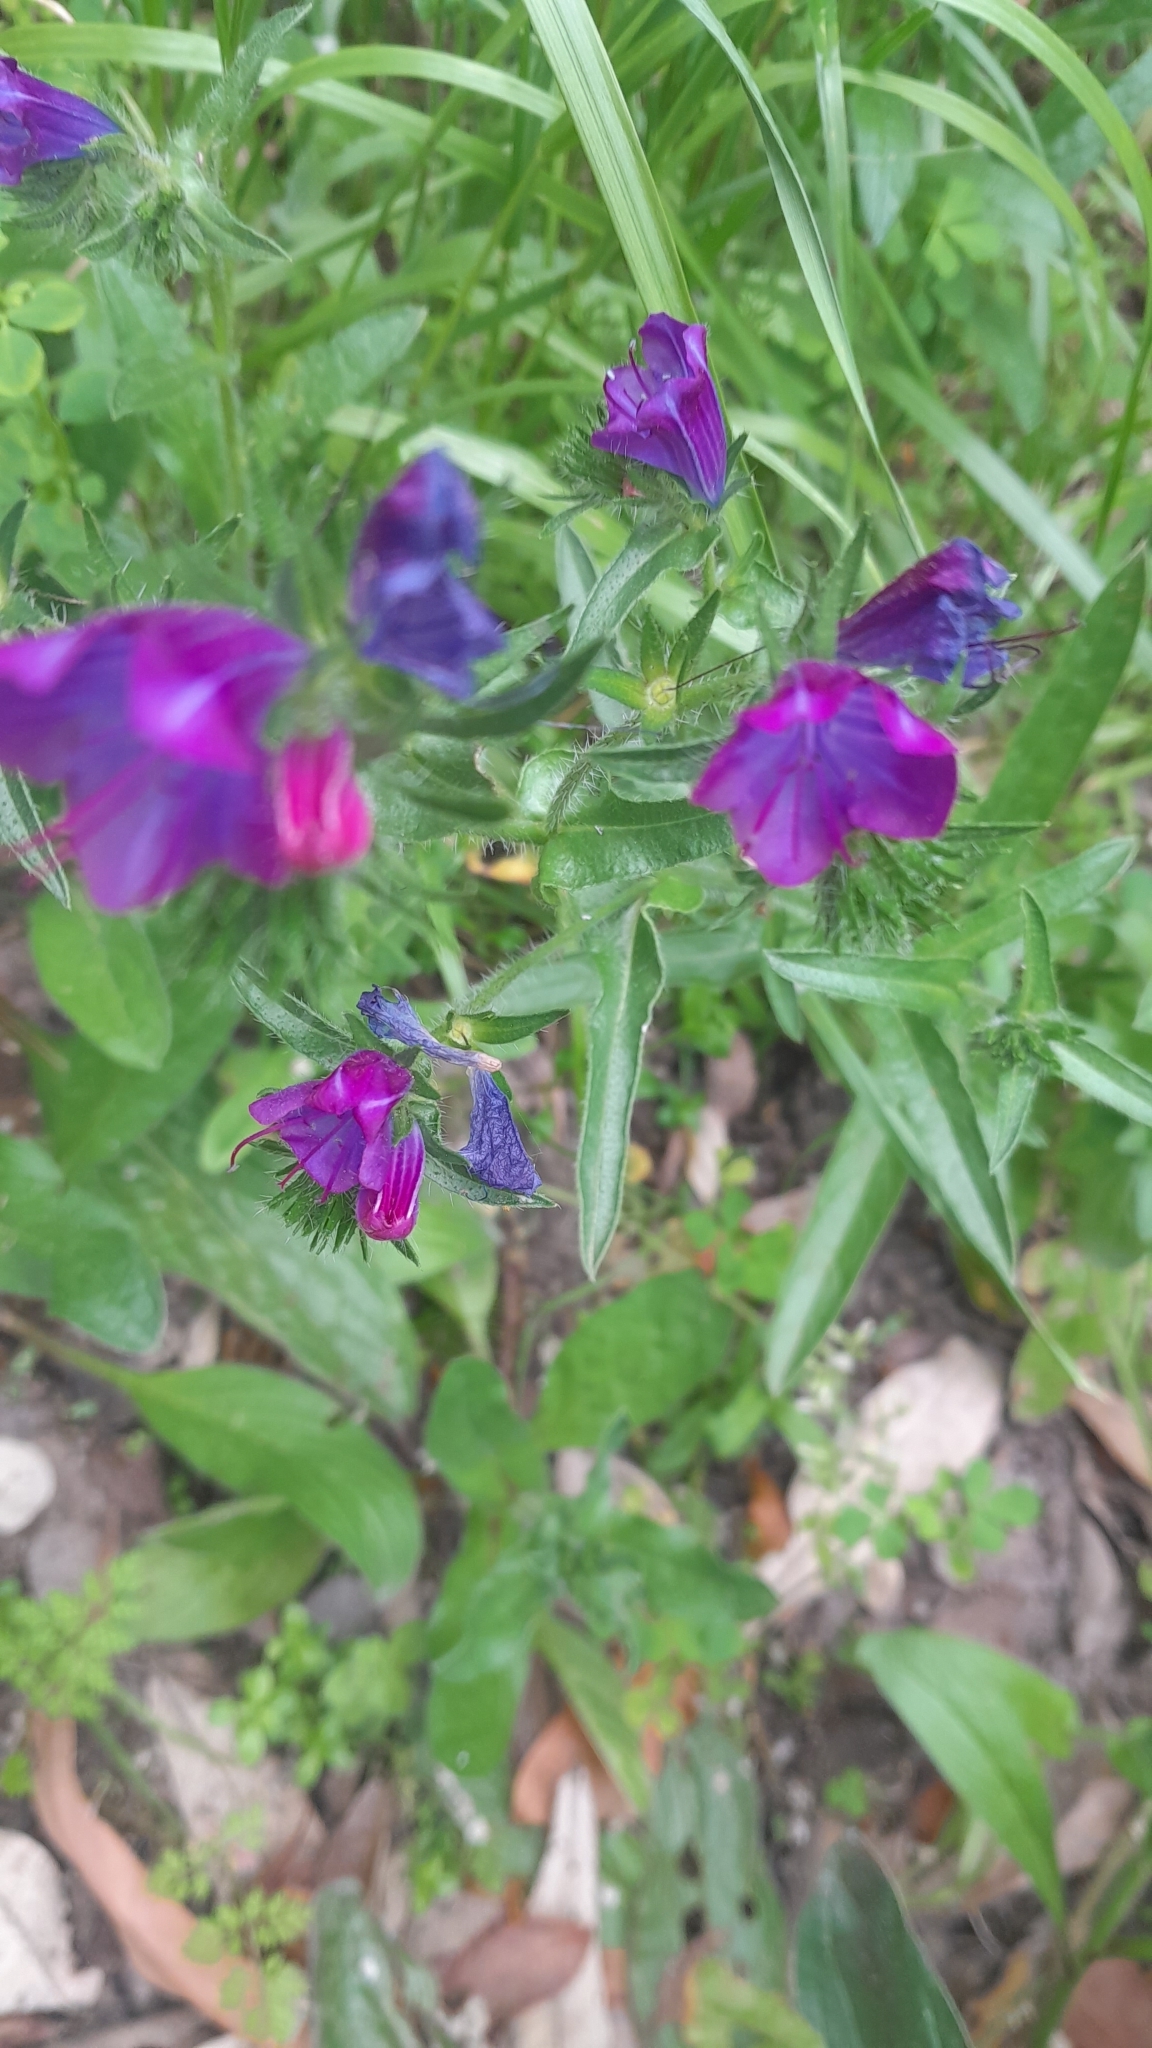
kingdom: Plantae
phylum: Tracheophyta
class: Magnoliopsida
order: Boraginales
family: Boraginaceae
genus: Echium
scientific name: Echium plantagineum
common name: Purple viper's-bugloss
